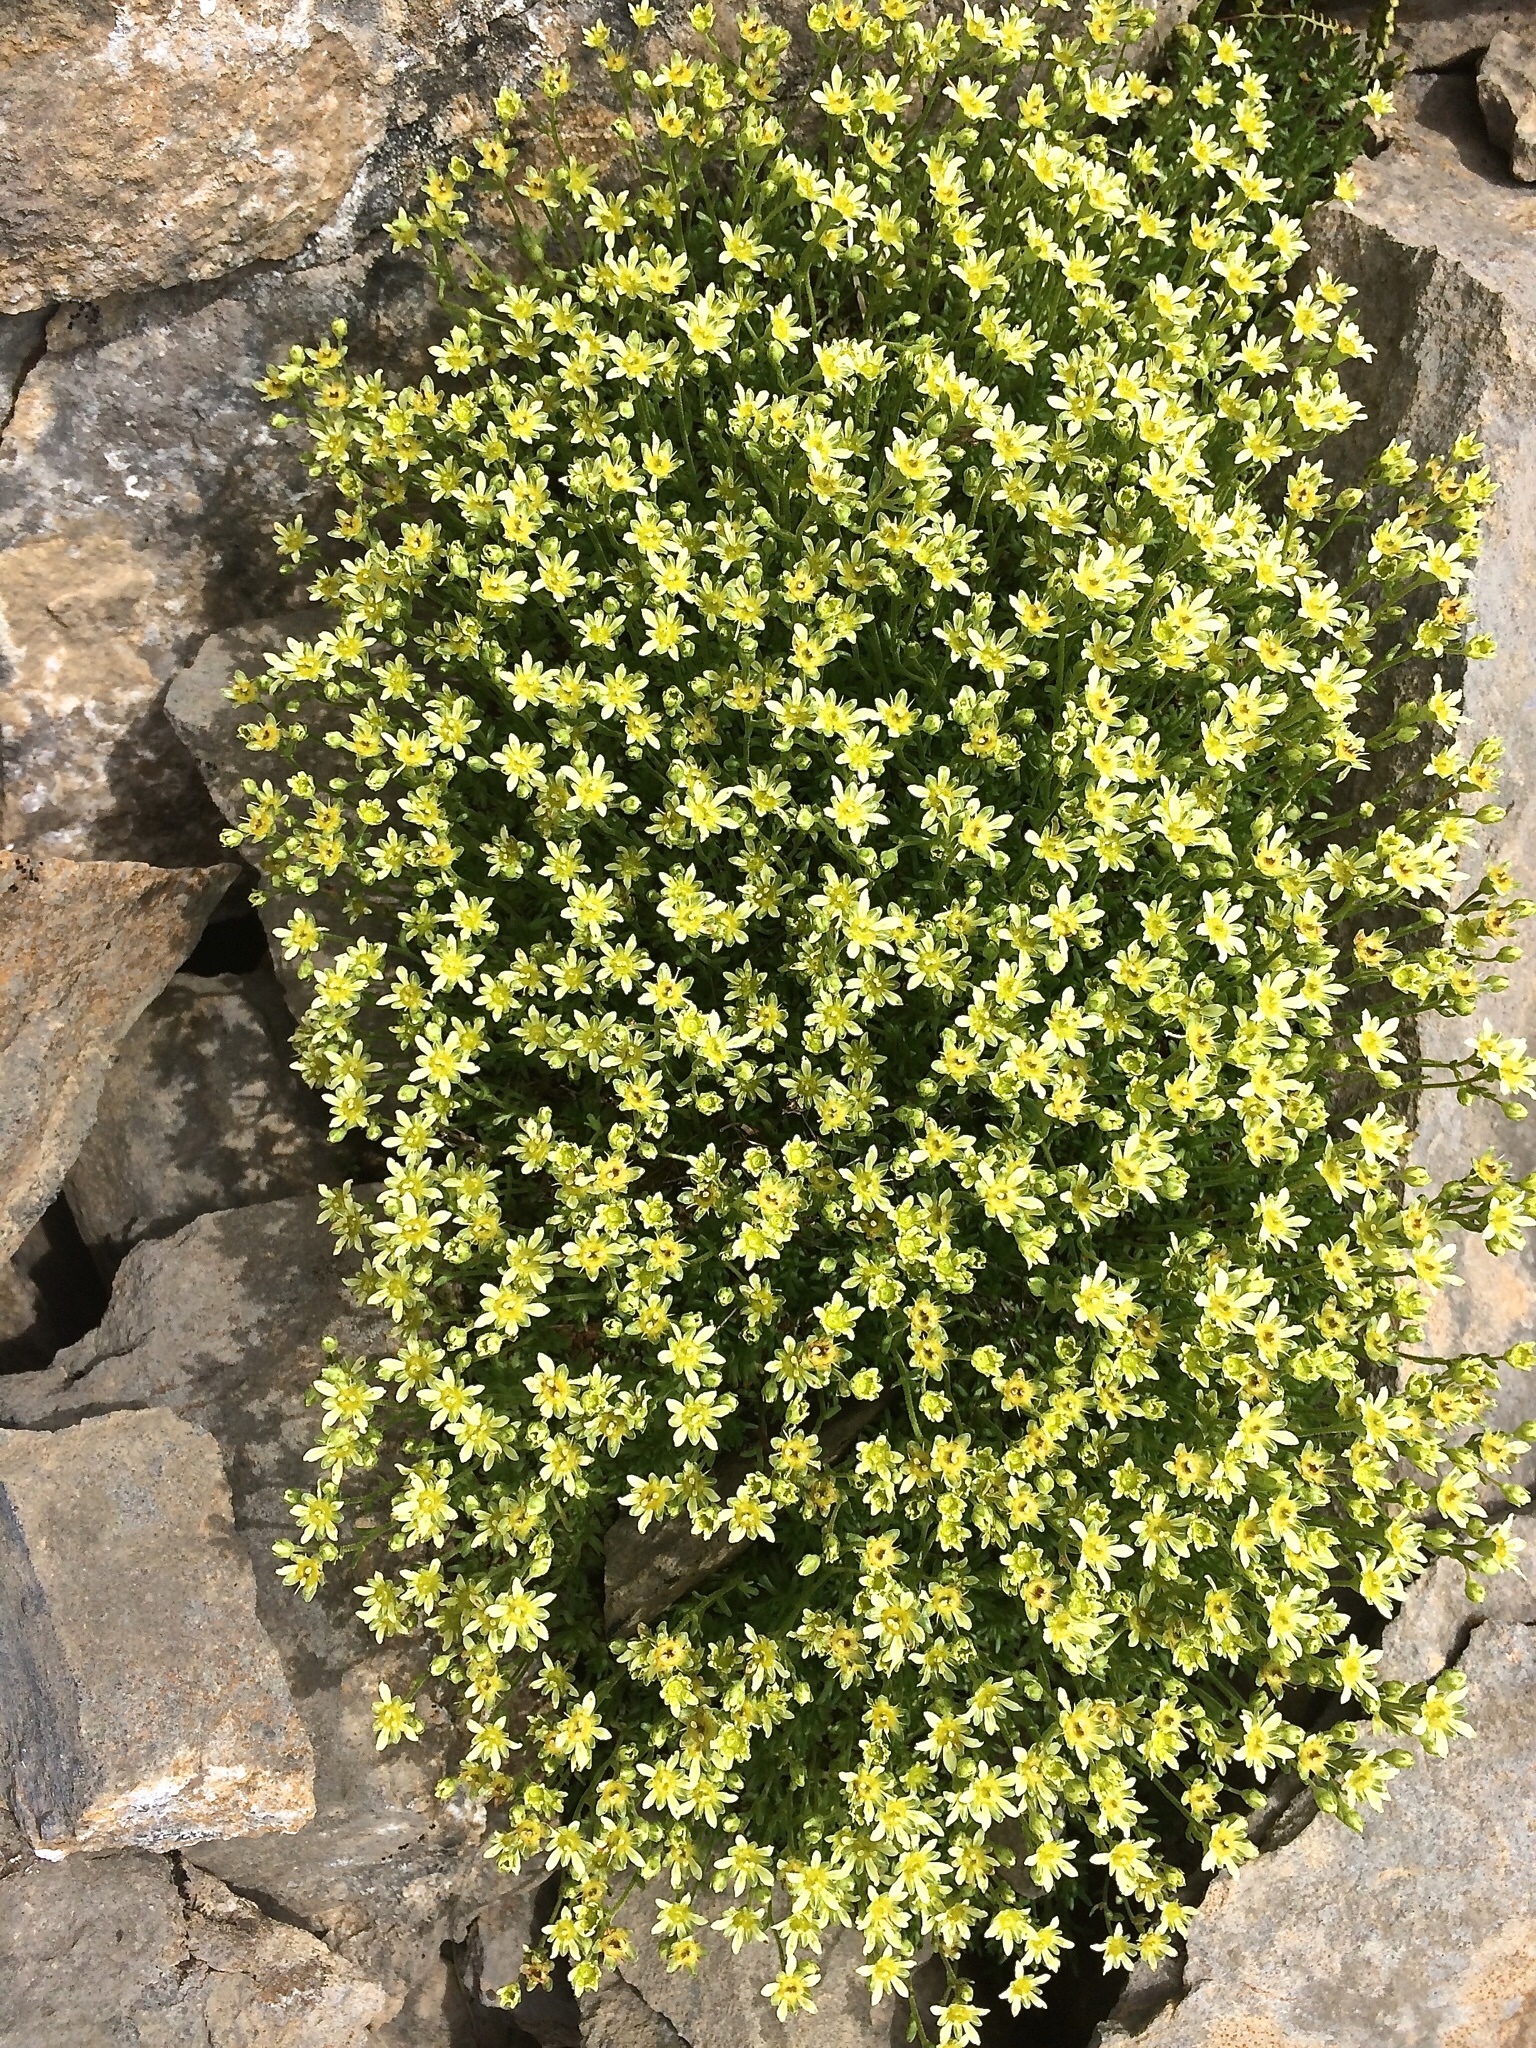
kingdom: Plantae
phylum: Tracheophyta
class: Magnoliopsida
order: Saxifragales
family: Saxifragaceae
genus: Saxifraga
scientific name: Saxifraga moschata
